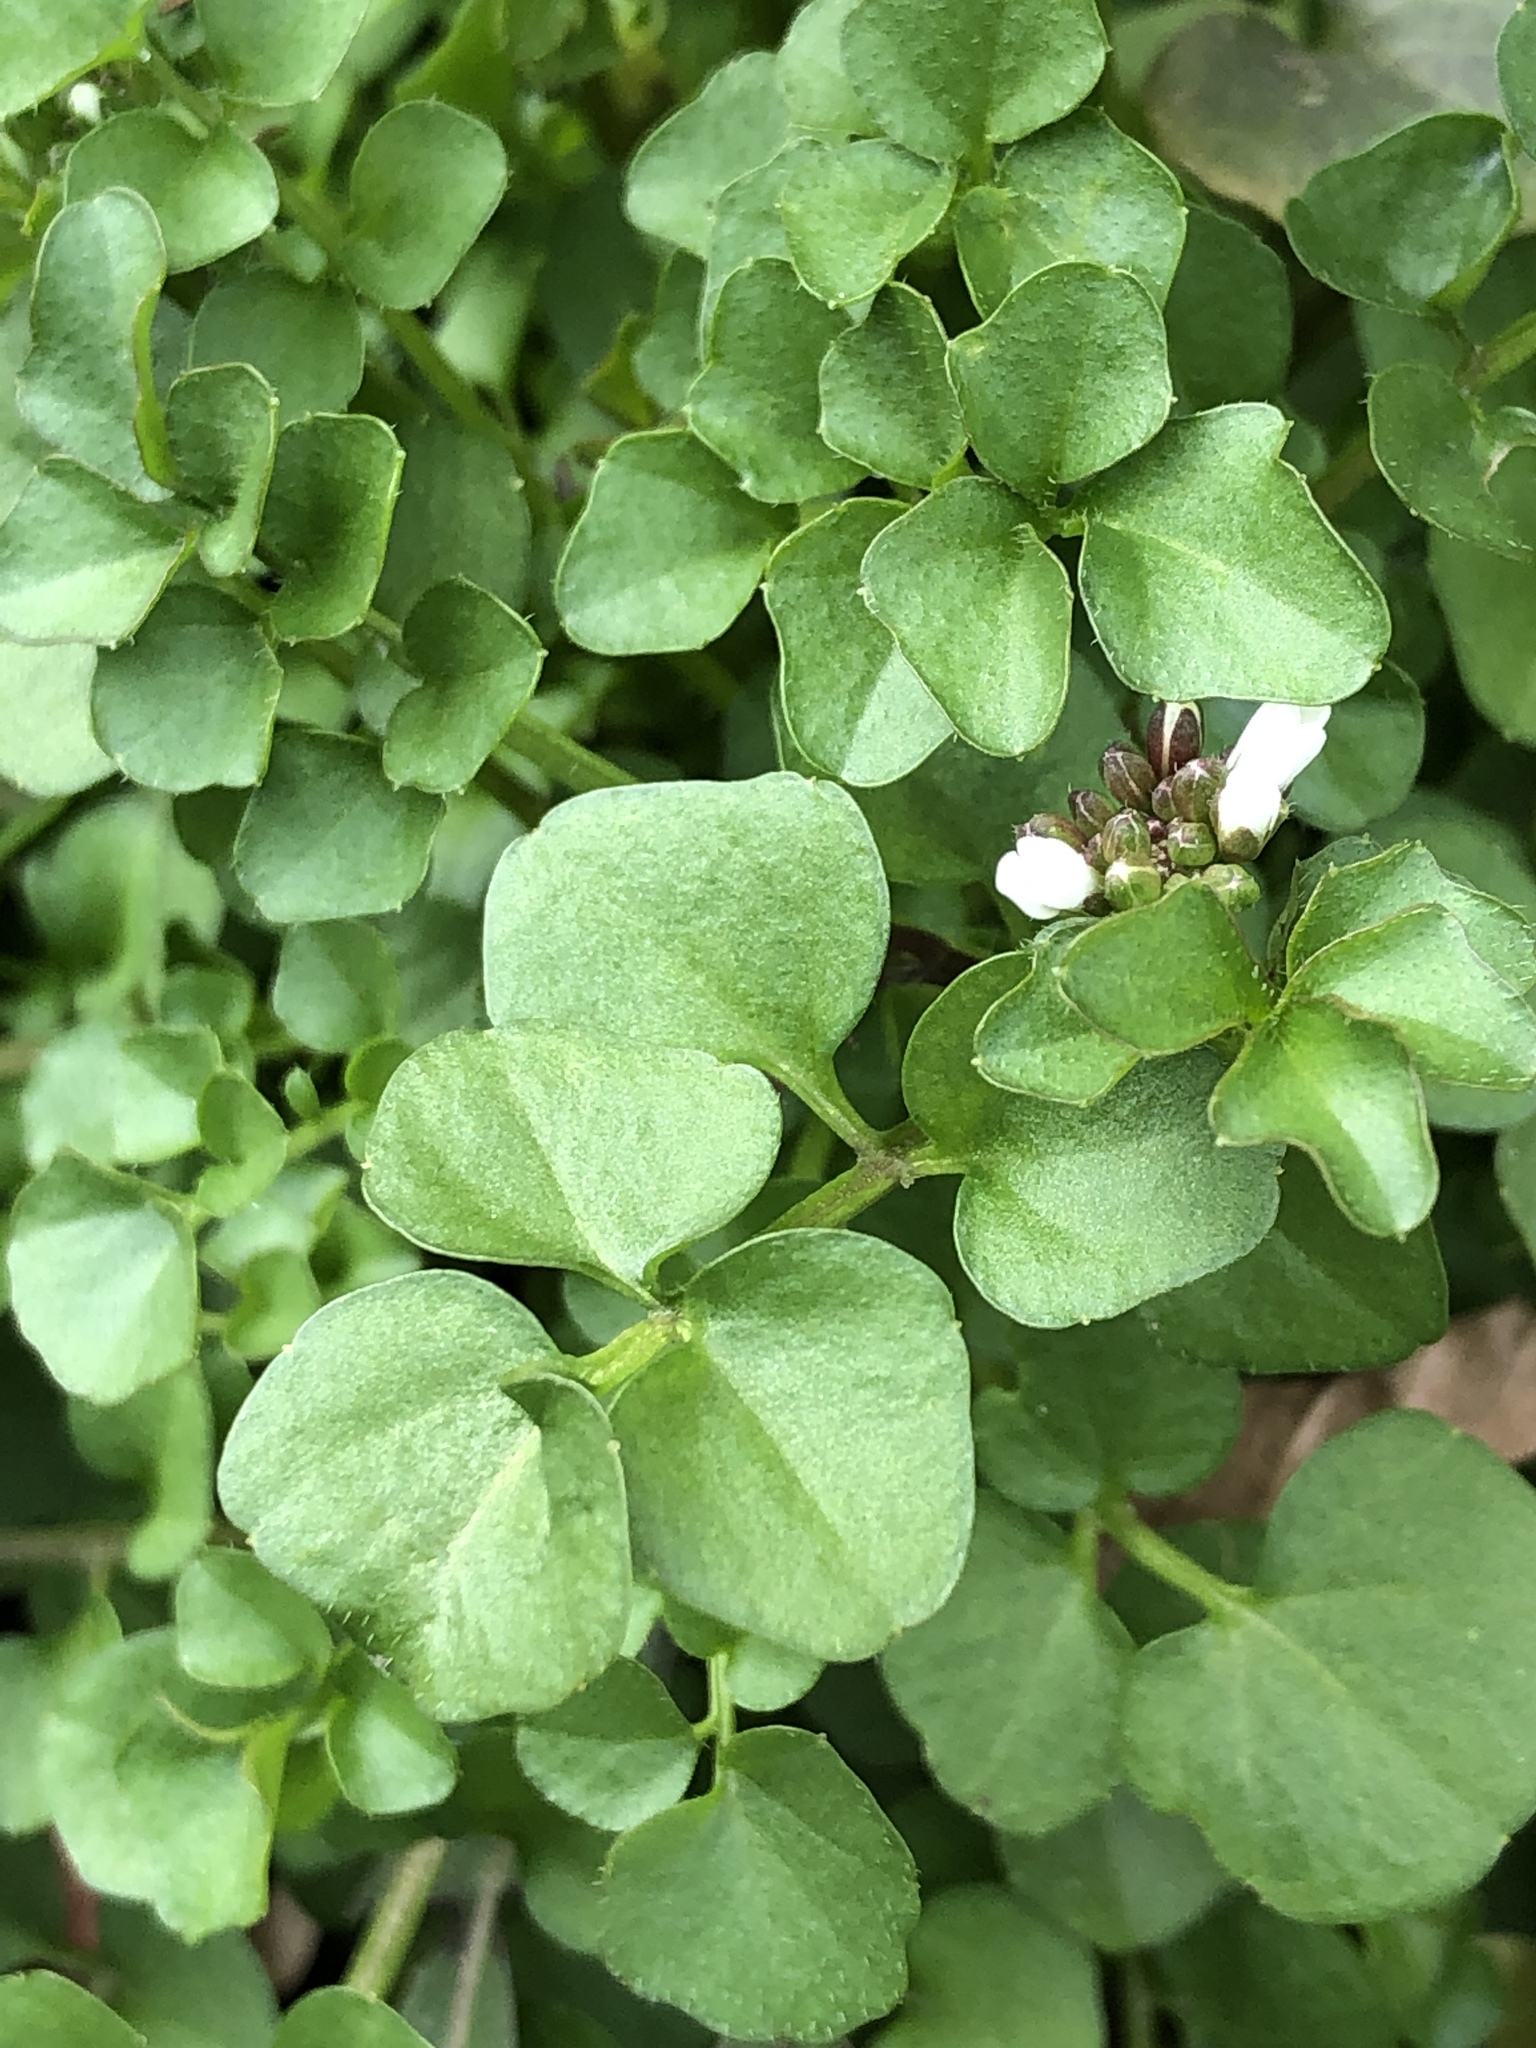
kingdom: Plantae
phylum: Tracheophyta
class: Magnoliopsida
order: Brassicales
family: Brassicaceae
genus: Cardamine
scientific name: Cardamine hirsuta
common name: Hairy bittercress
